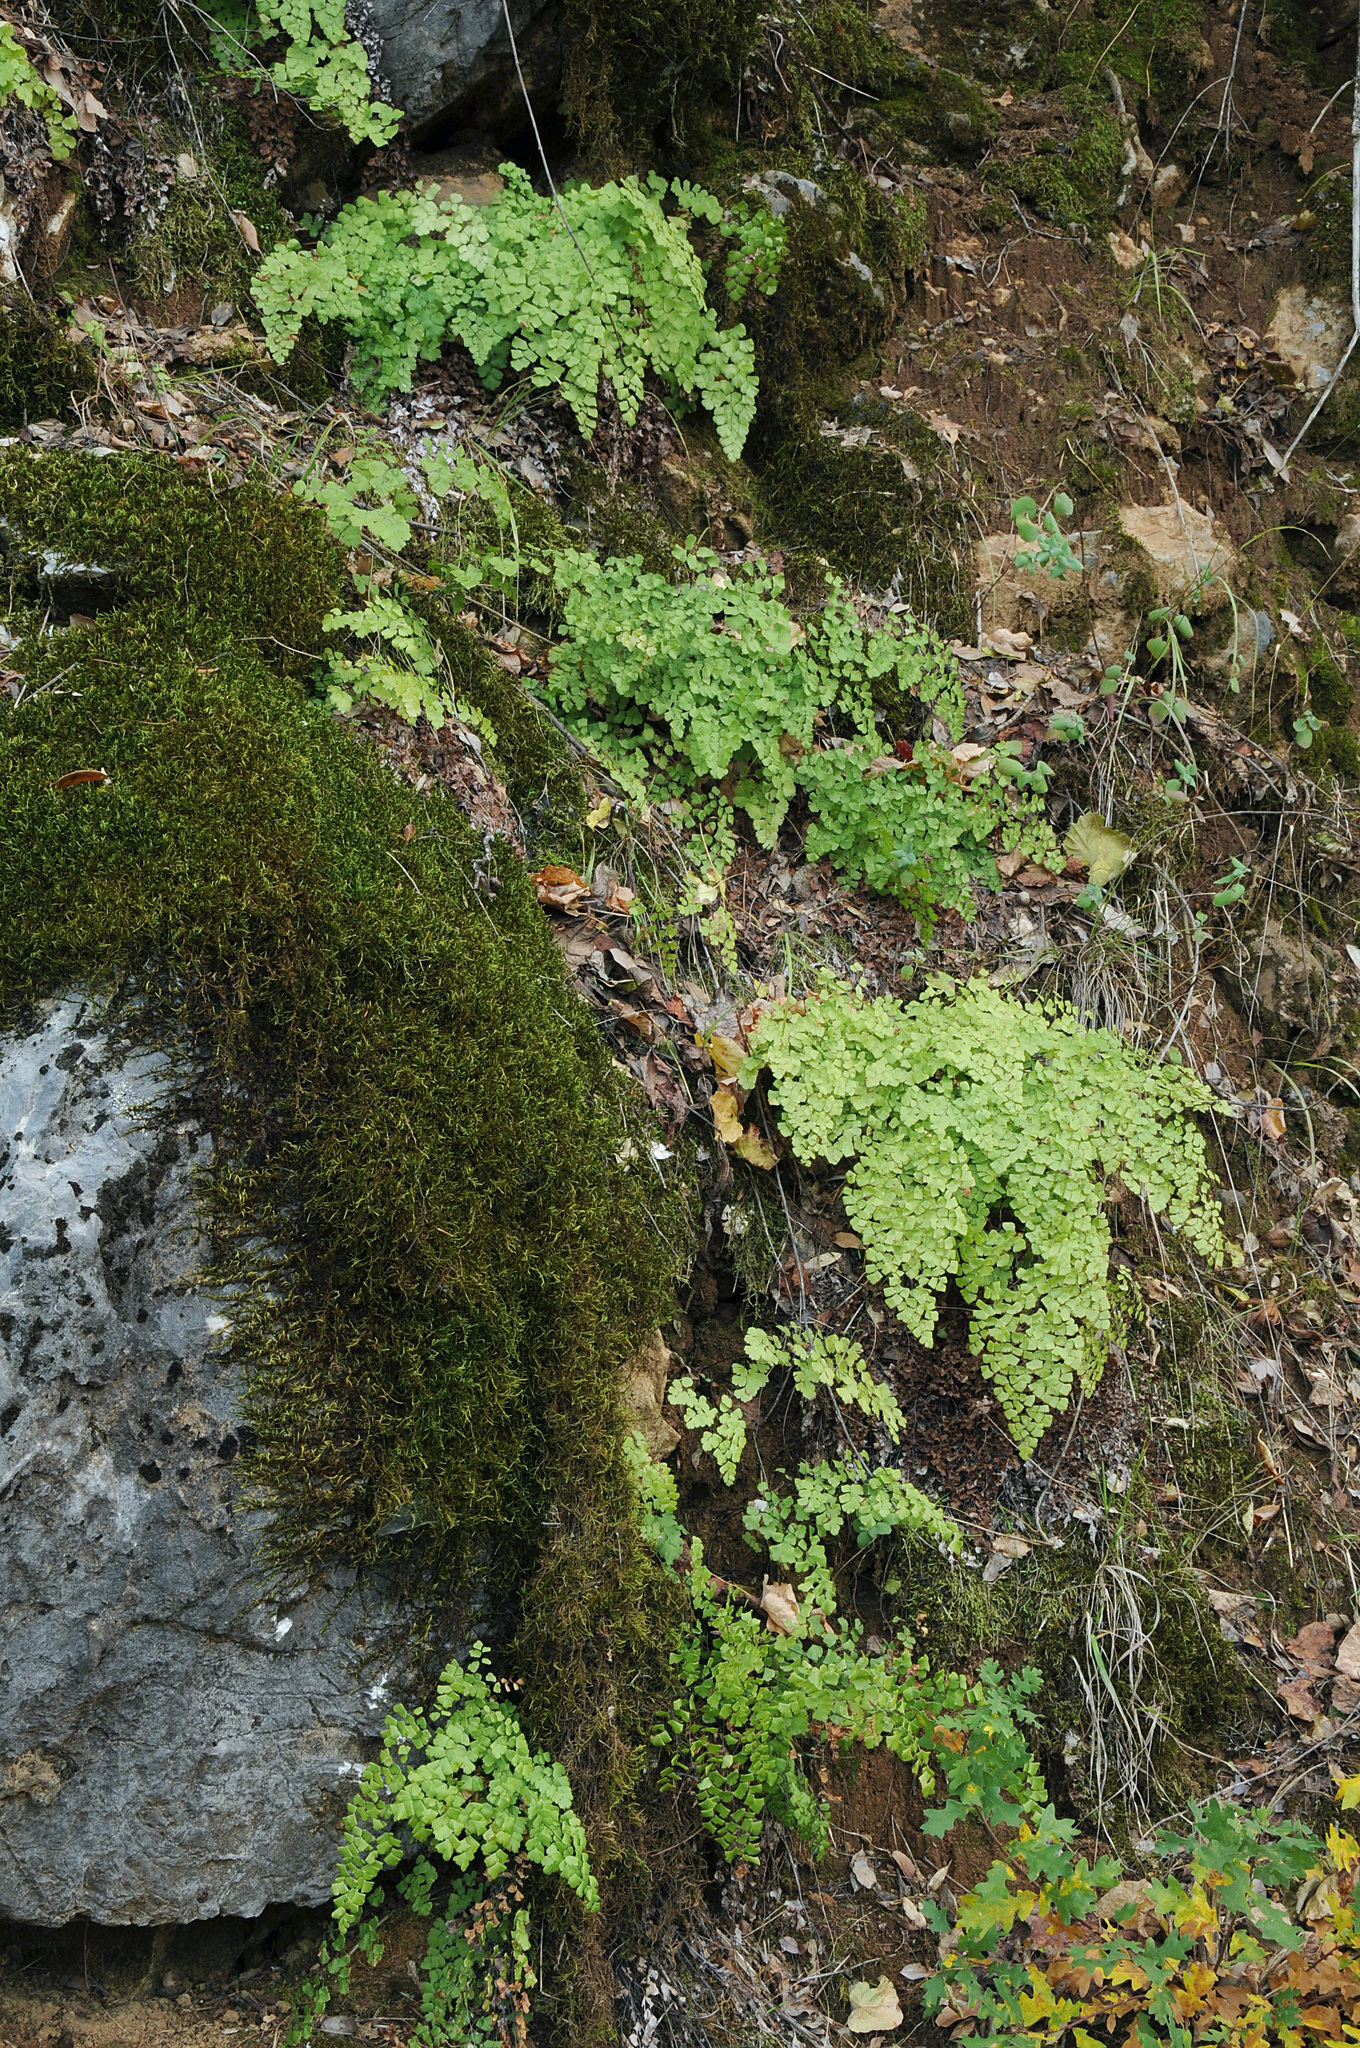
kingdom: Plantae
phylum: Tracheophyta
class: Polypodiopsida
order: Polypodiales
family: Pteridaceae
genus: Adiantum
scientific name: Adiantum shastense
